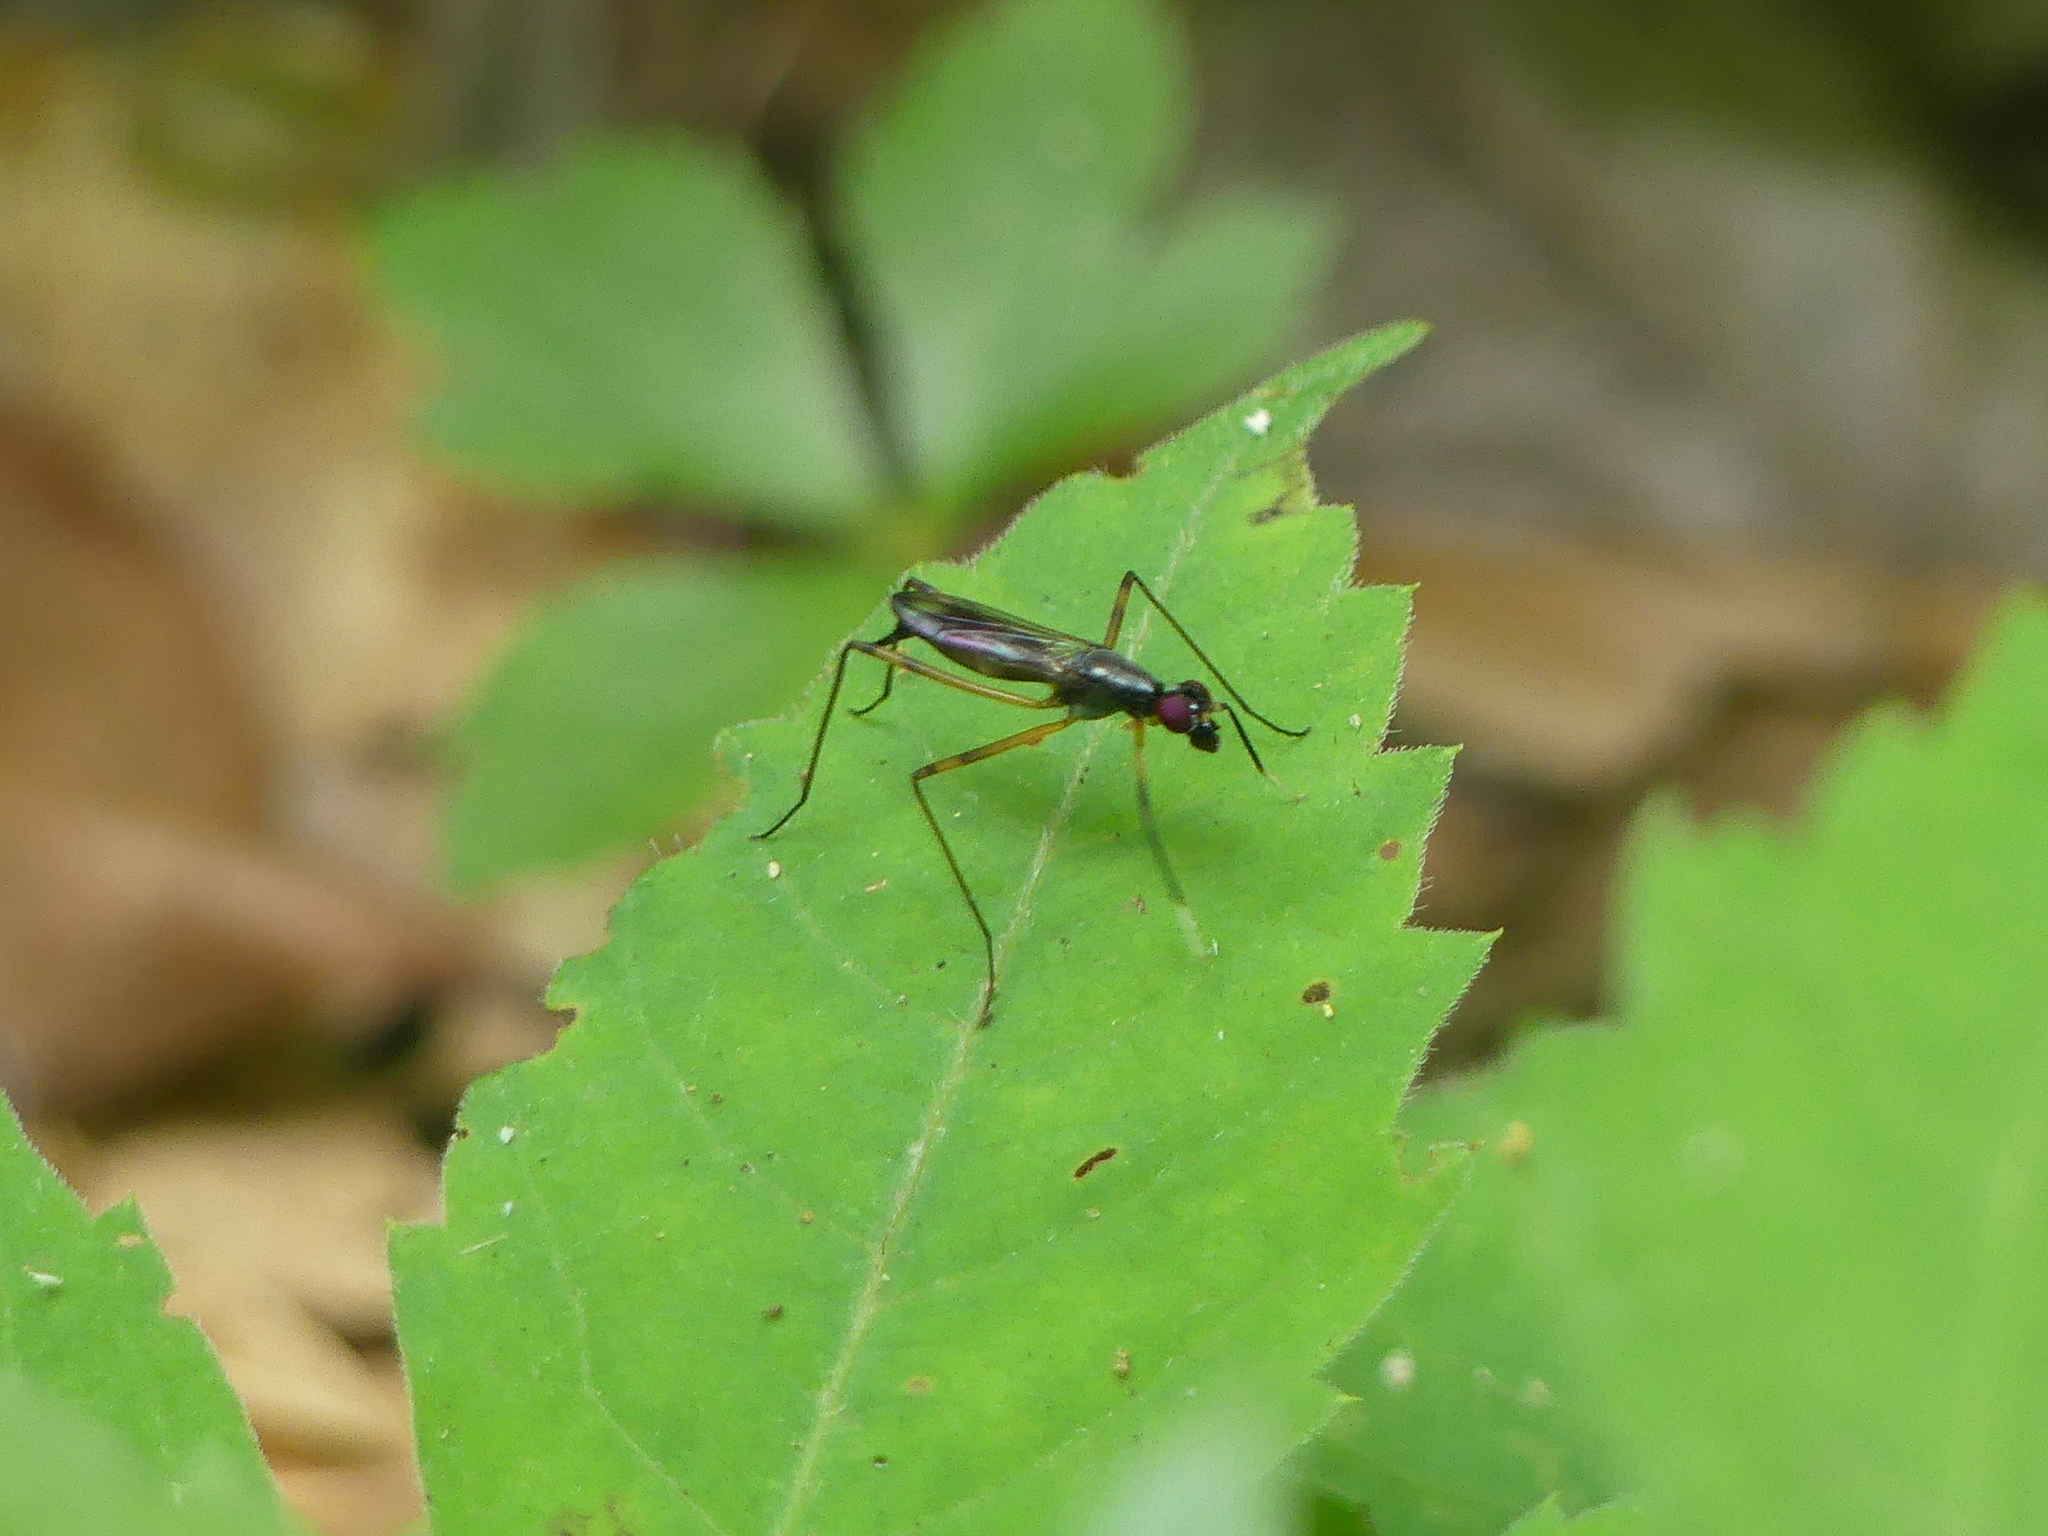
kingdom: Animalia
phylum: Arthropoda
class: Insecta
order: Diptera
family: Micropezidae
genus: Rainieria
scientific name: Rainieria antennaepes
